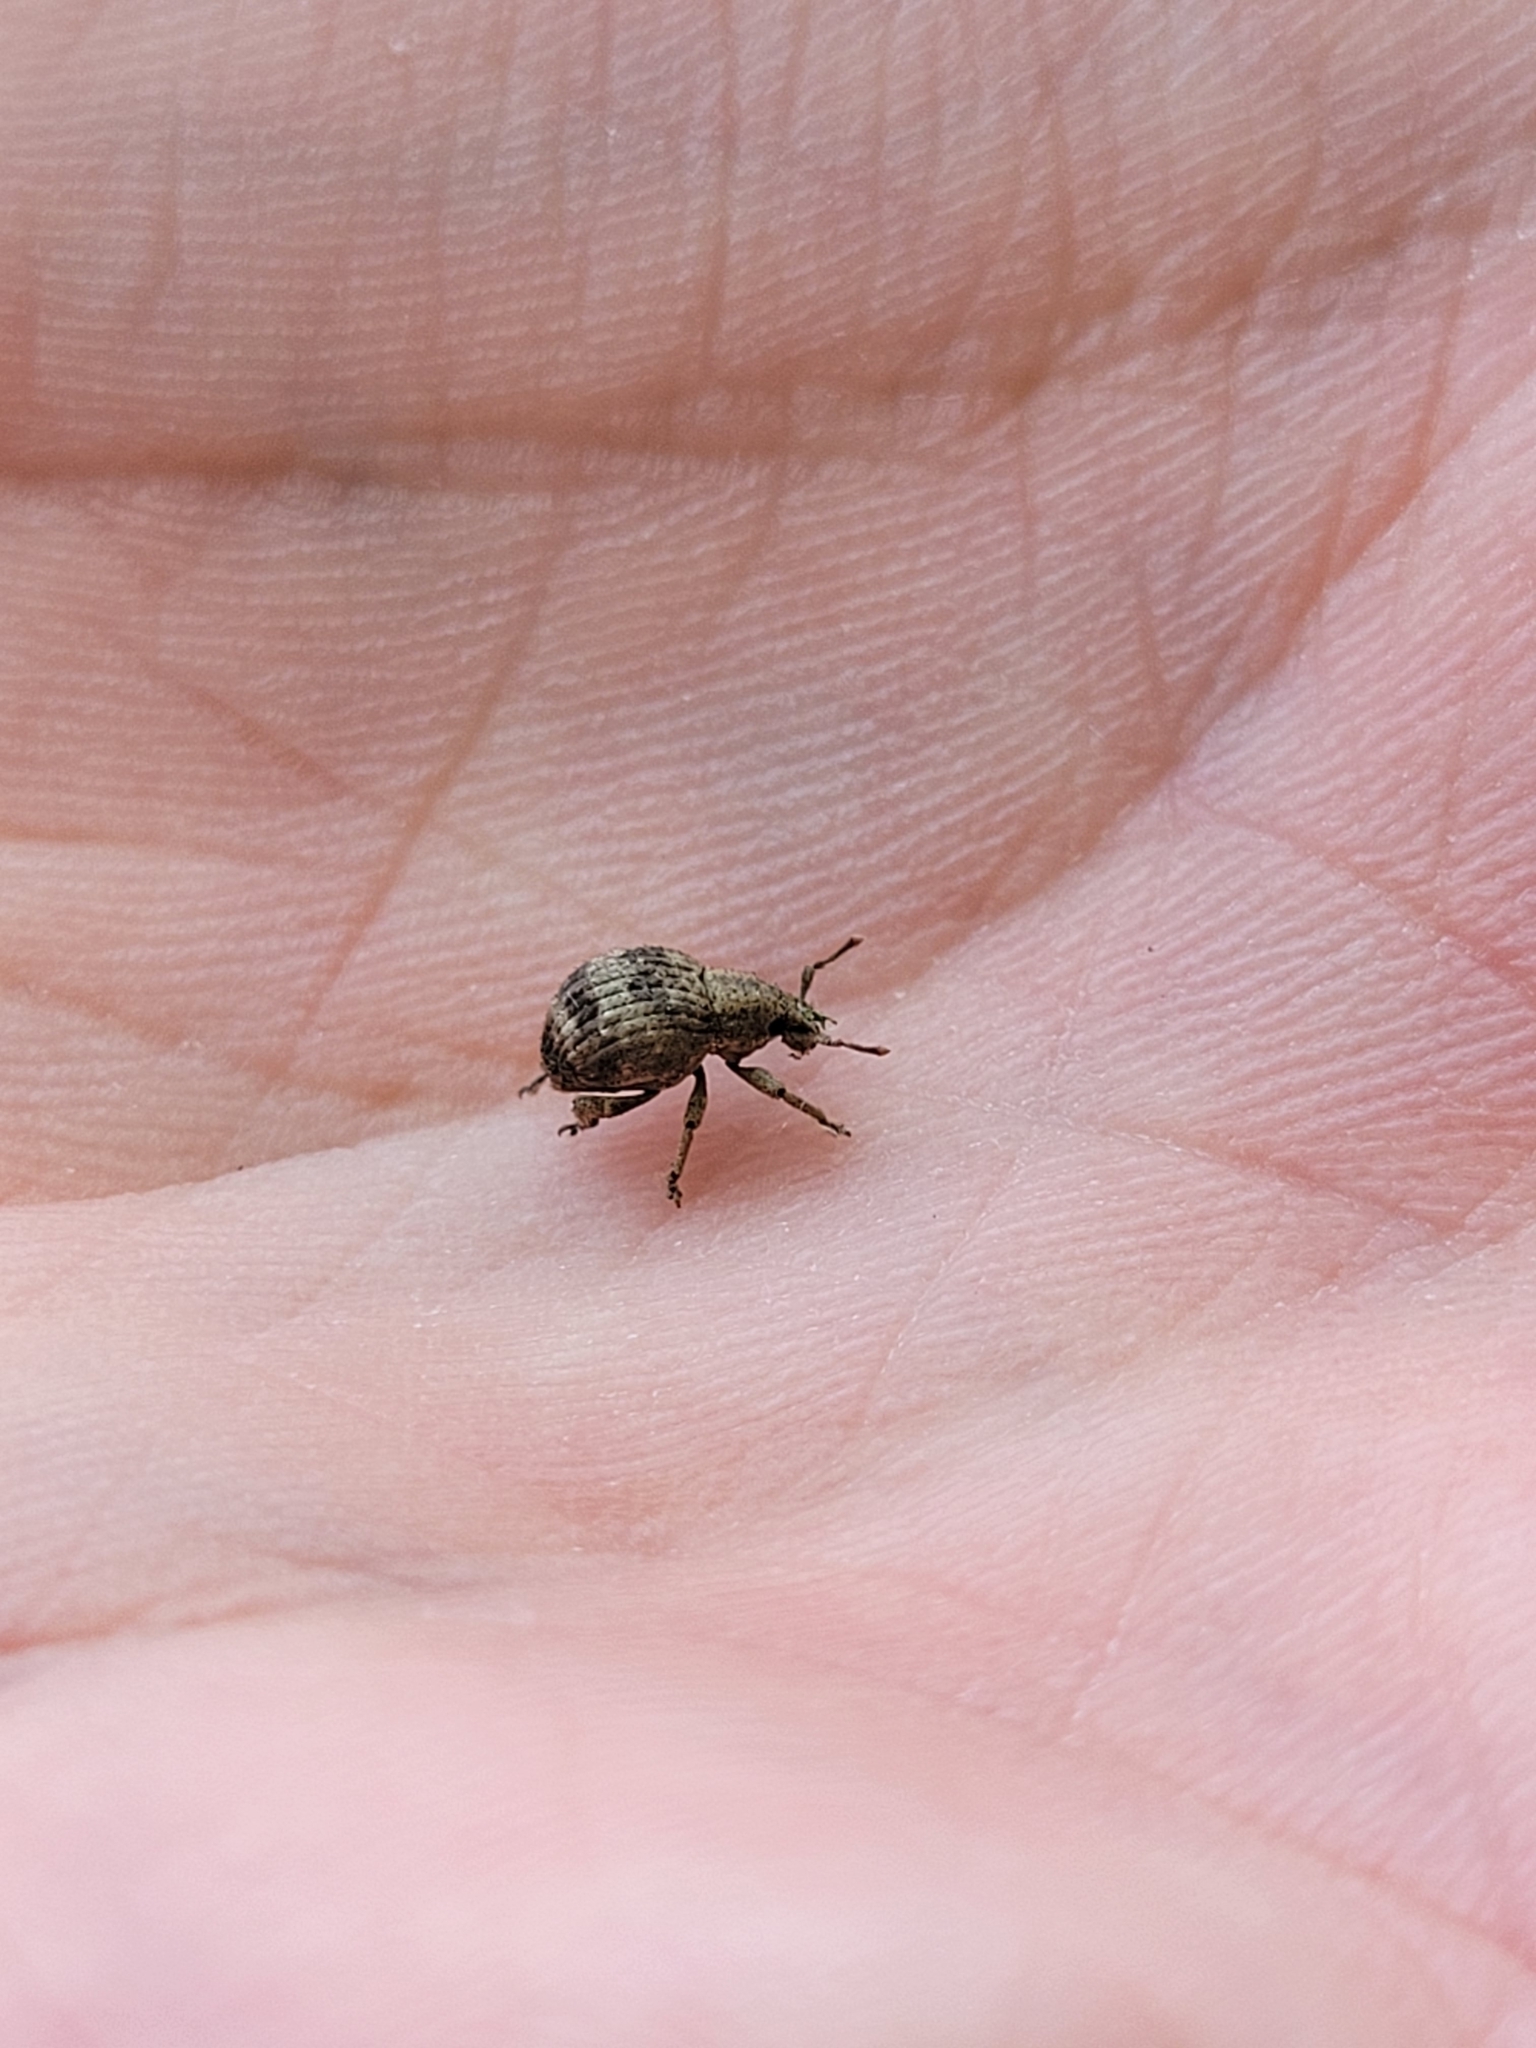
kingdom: Animalia
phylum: Arthropoda
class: Insecta
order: Coleoptera
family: Curculionidae
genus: Pseudocneorhinus
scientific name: Pseudocneorhinus bifasciatus
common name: Two-banded japanese weevil
